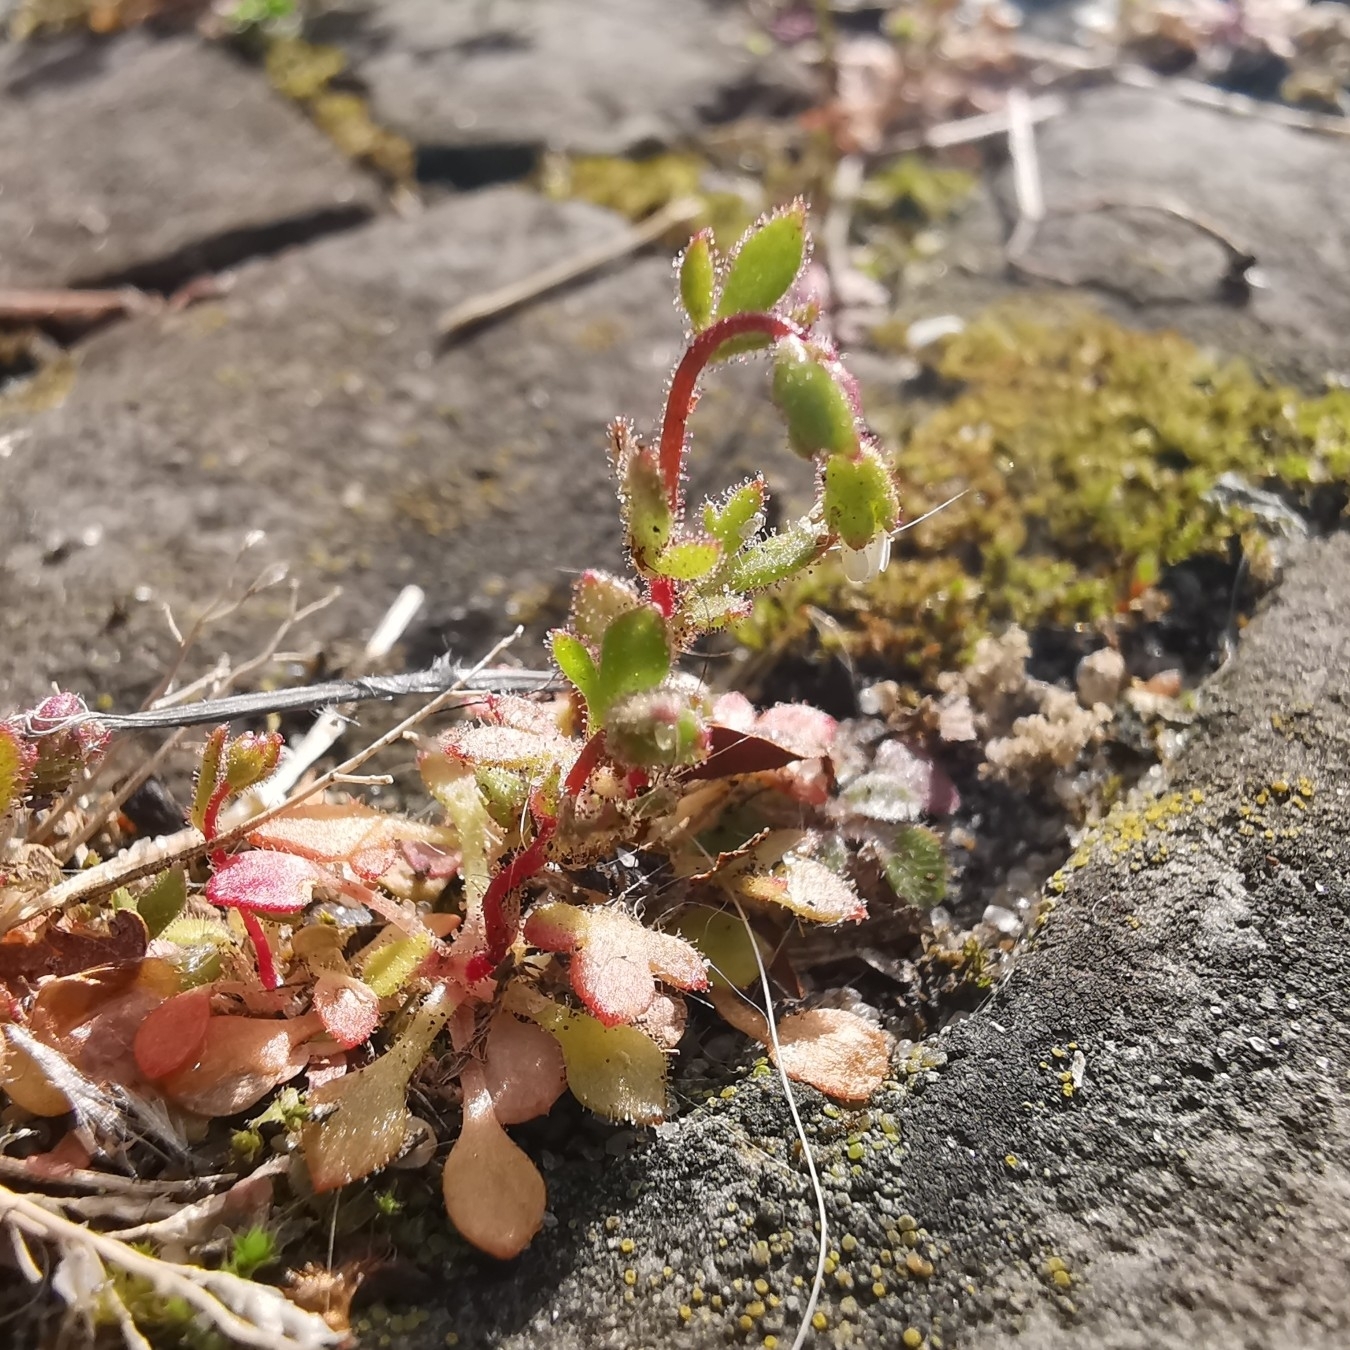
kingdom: Plantae
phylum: Tracheophyta
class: Magnoliopsida
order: Saxifragales
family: Saxifragaceae
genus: Saxifraga
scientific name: Saxifraga tridactylites
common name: Rue-leaved saxifrage
